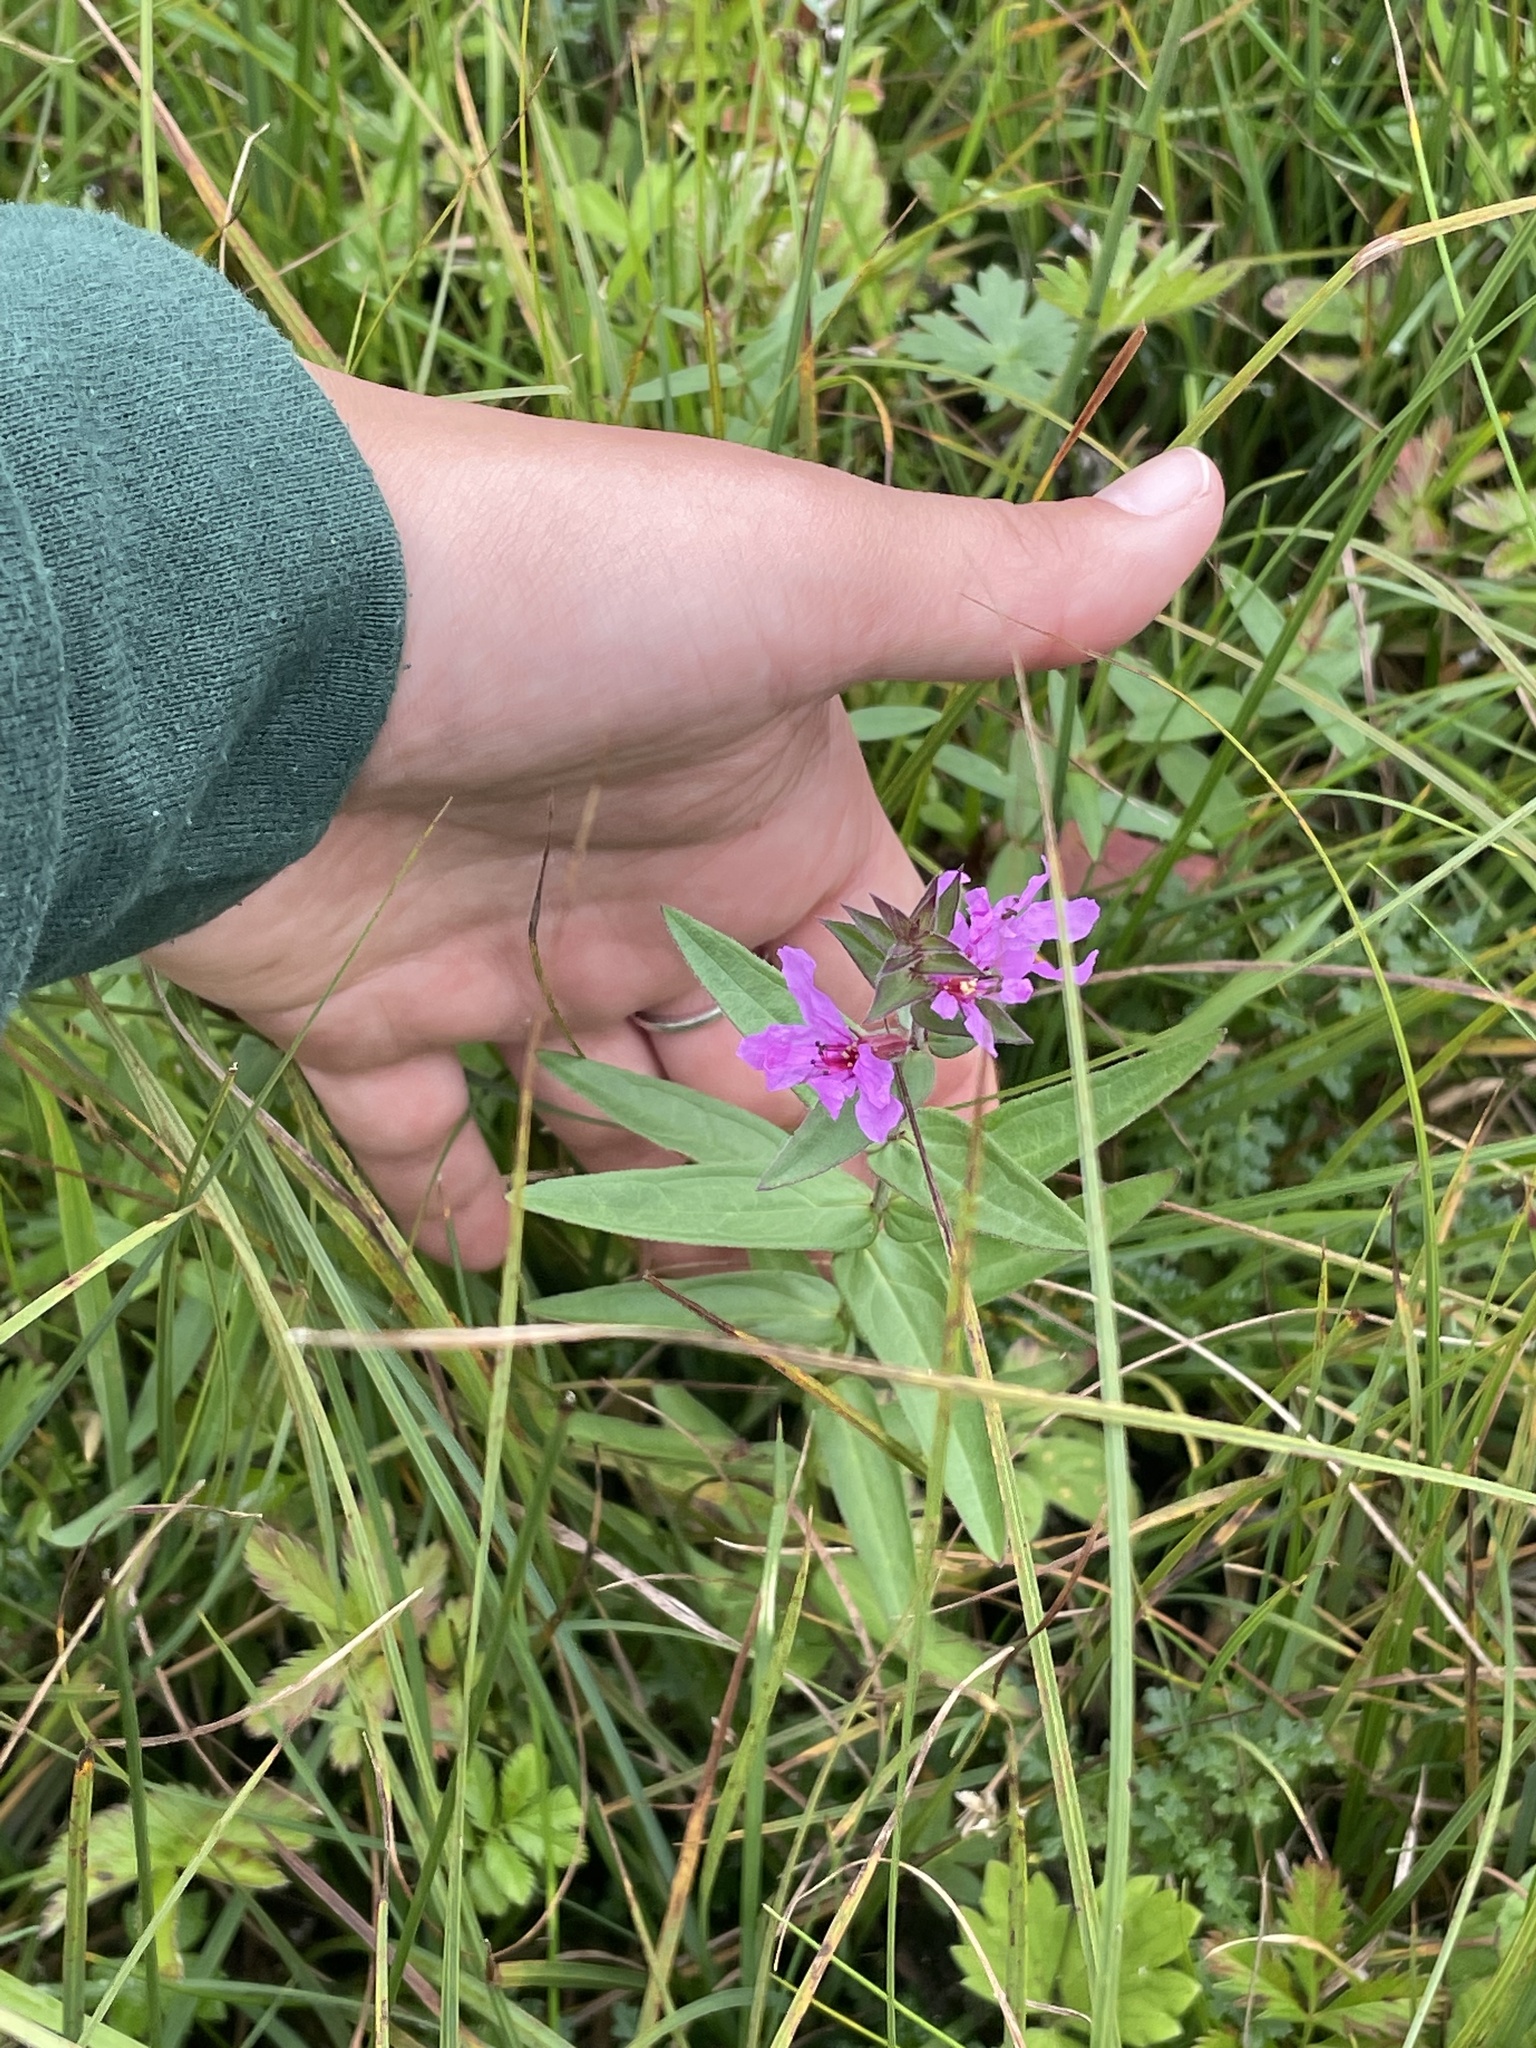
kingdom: Plantae
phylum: Tracheophyta
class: Magnoliopsida
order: Myrtales
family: Lythraceae
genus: Lythrum
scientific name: Lythrum salicaria
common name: Purple loosestrife
